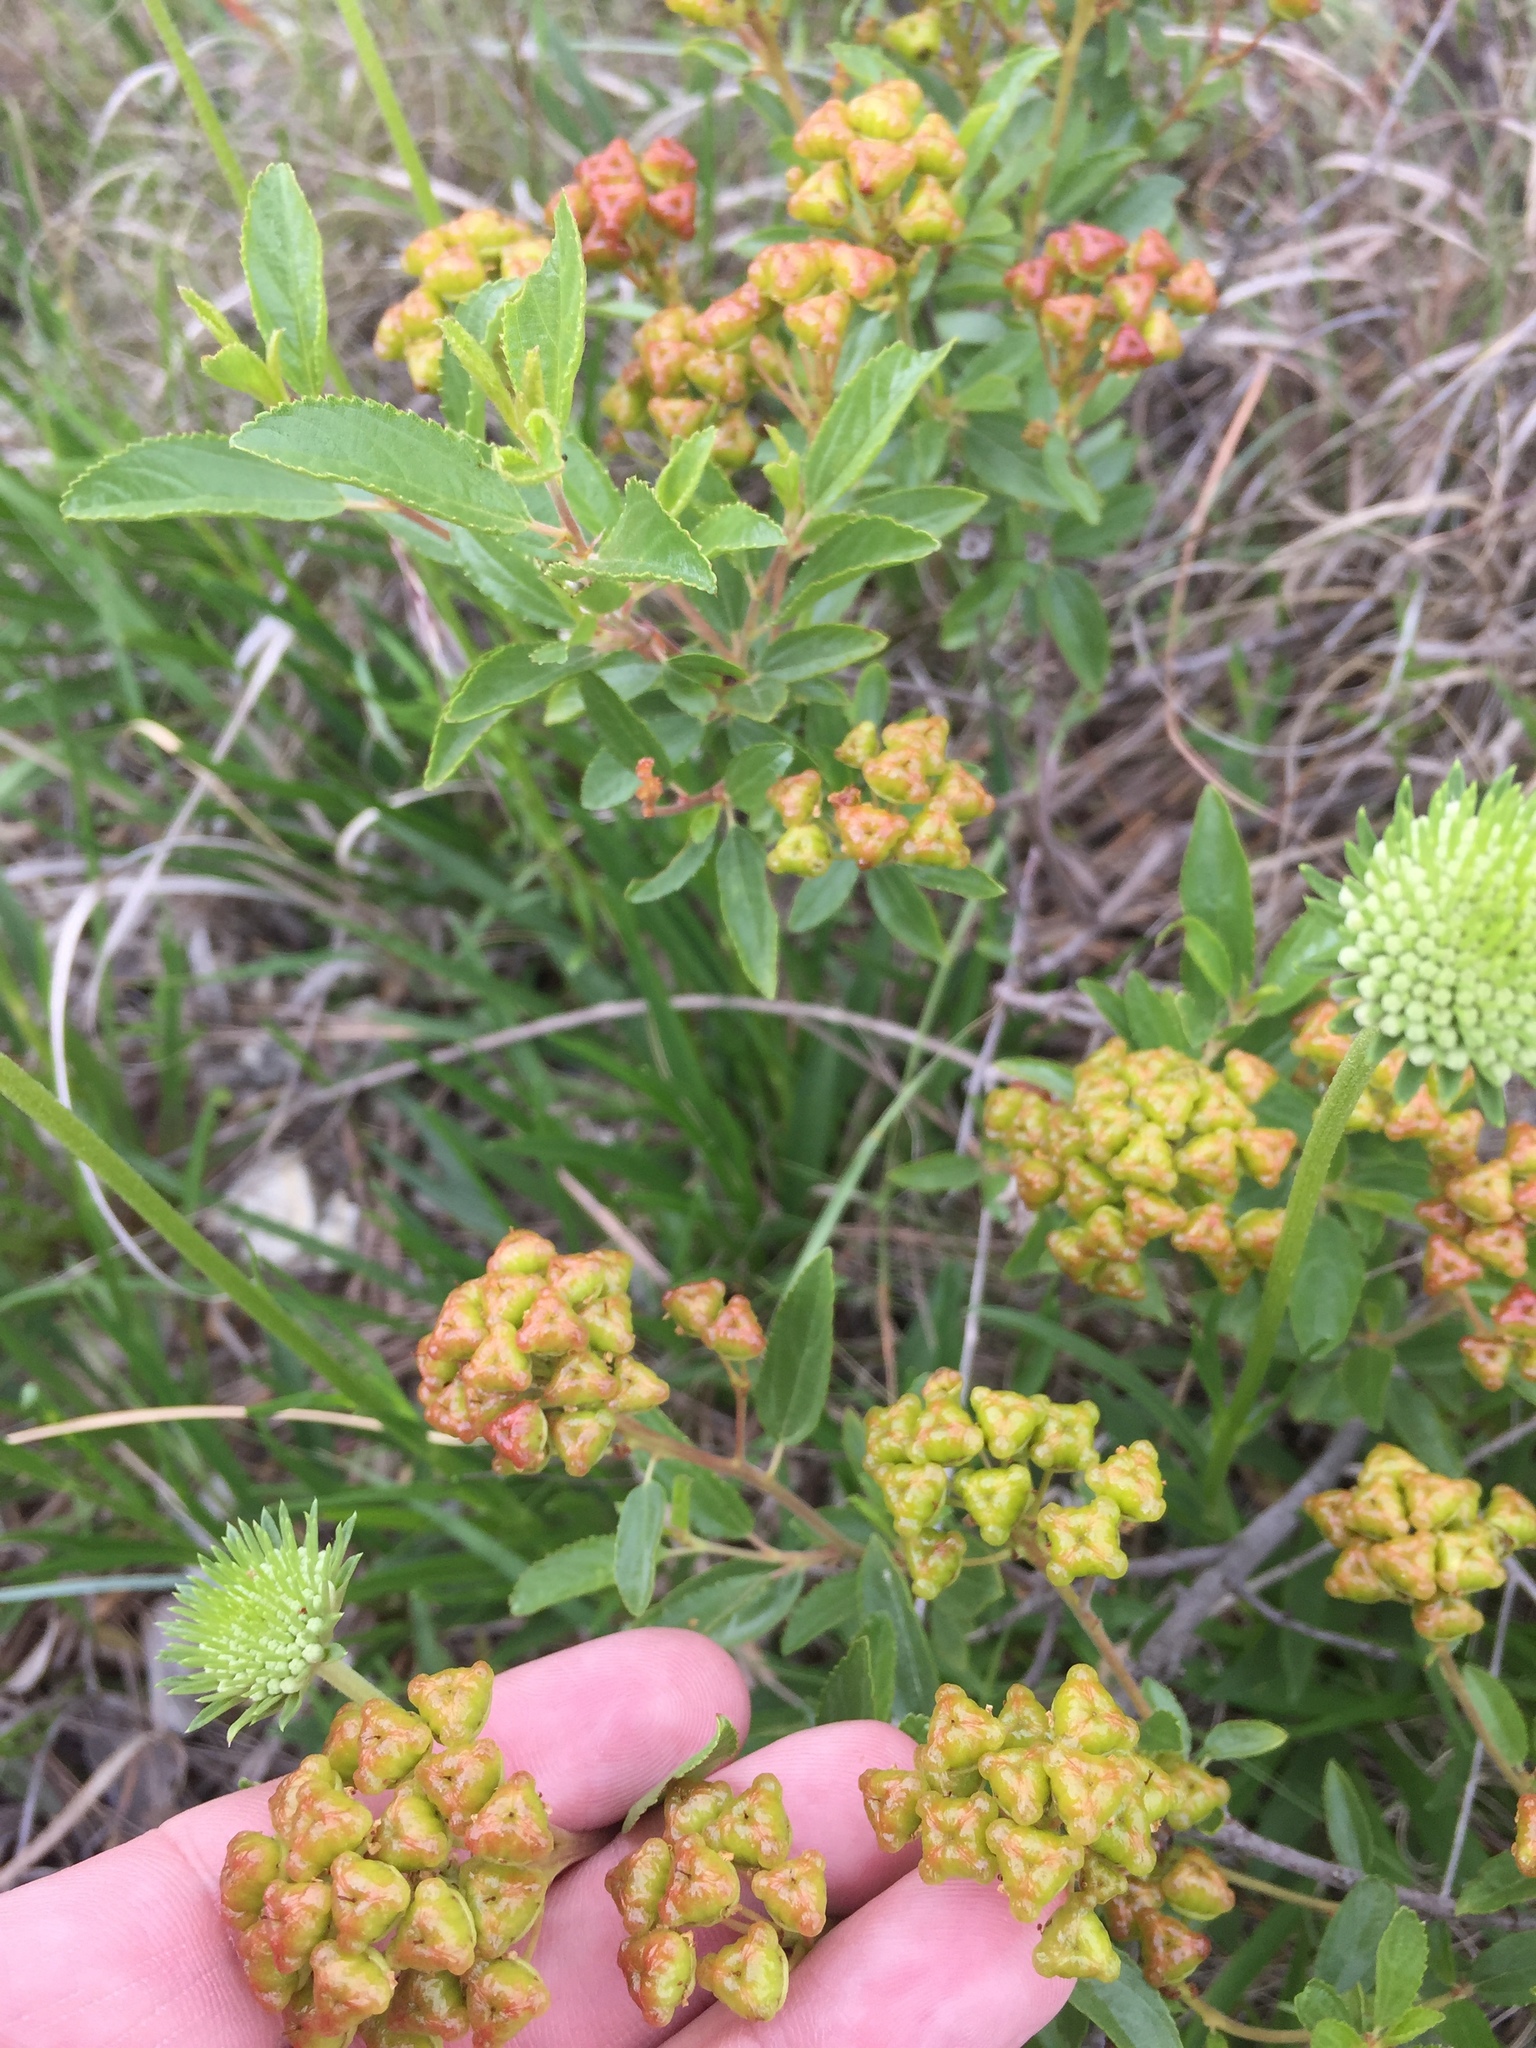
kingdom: Plantae
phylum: Tracheophyta
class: Magnoliopsida
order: Rosales
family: Rhamnaceae
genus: Ceanothus
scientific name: Ceanothus herbaceus
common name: Inland ceanothus
